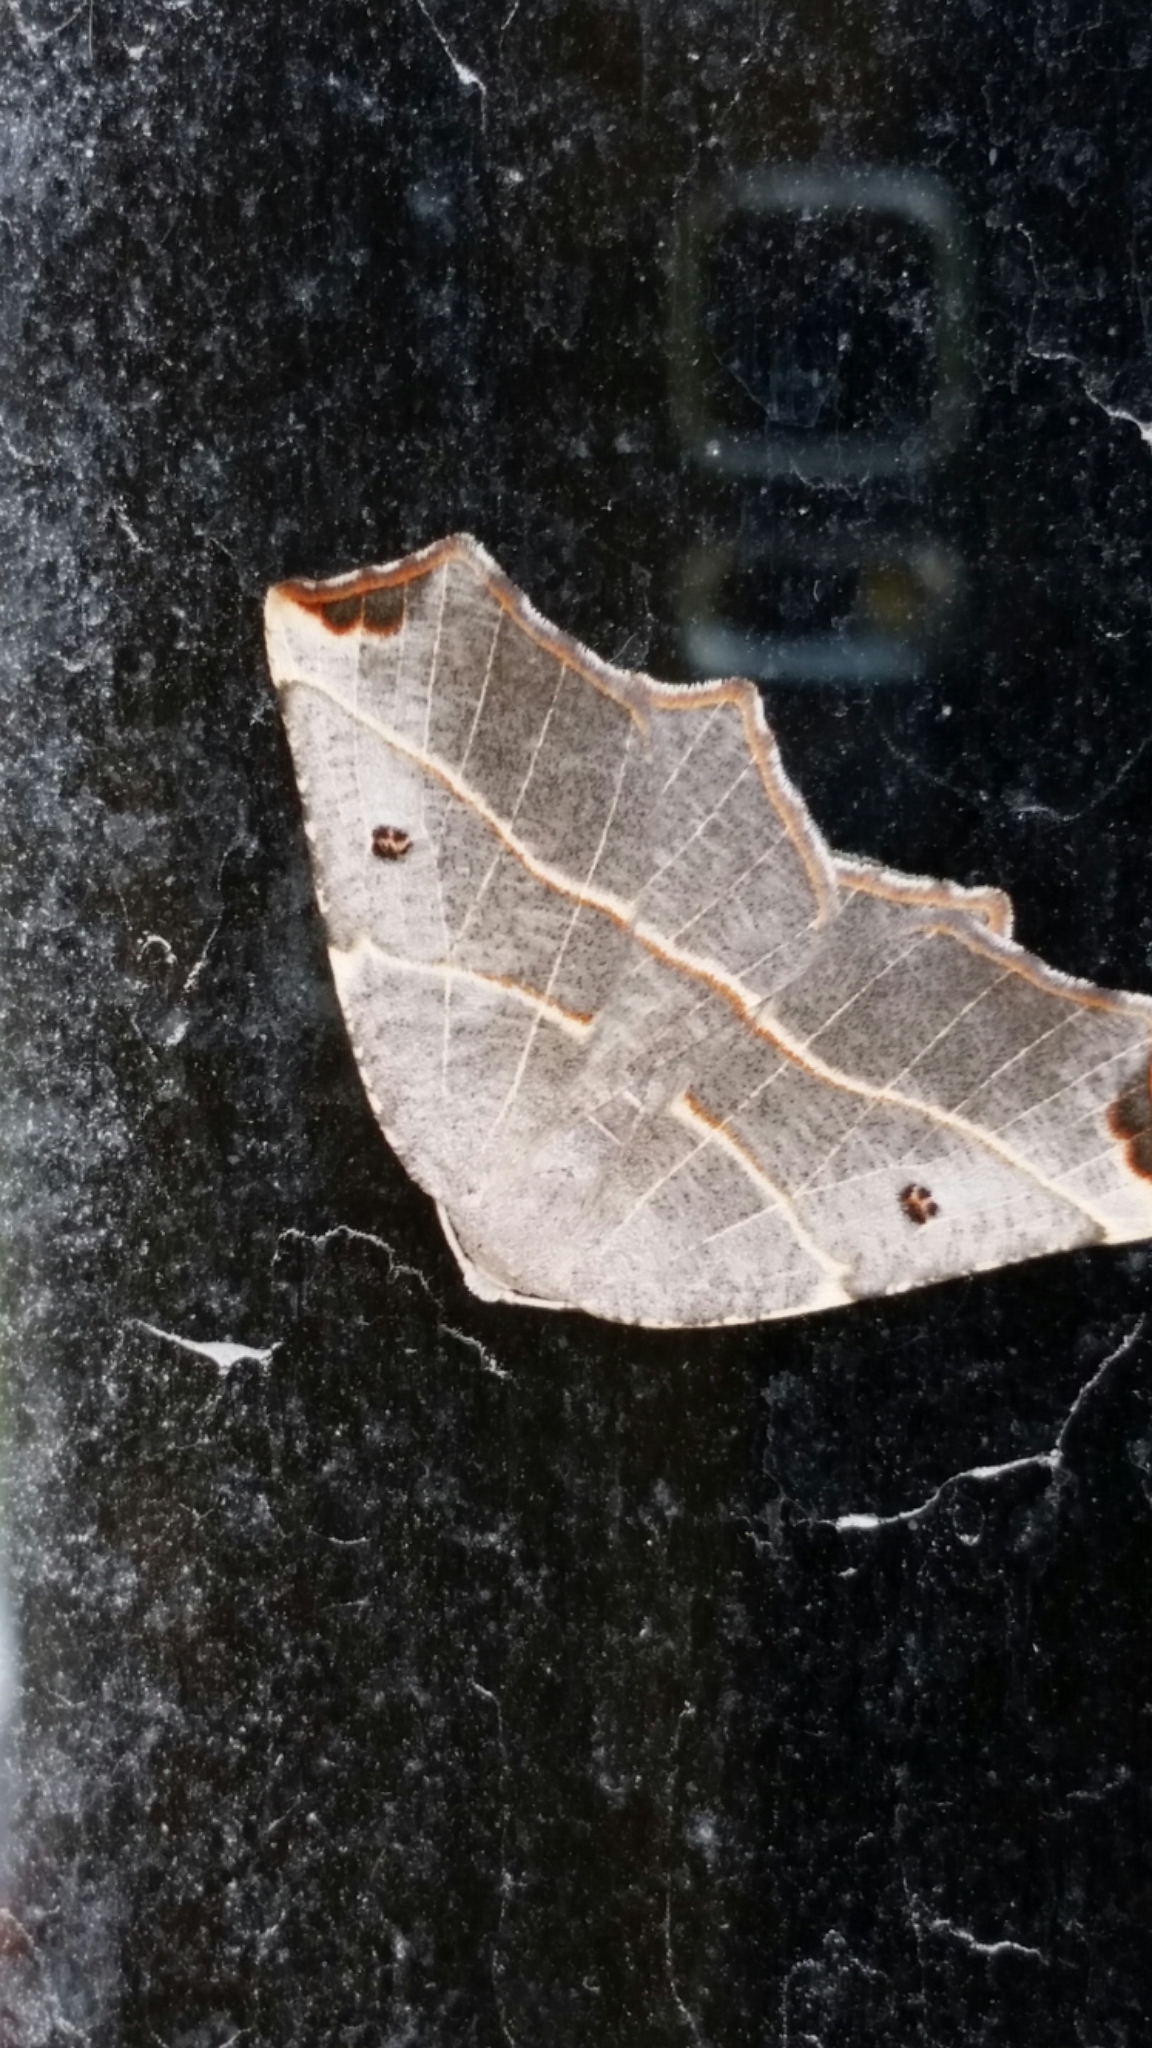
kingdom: Animalia
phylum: Arthropoda
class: Insecta
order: Lepidoptera
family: Geometridae
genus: Metanema
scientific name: Metanema inatomaria
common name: Pale metanema
